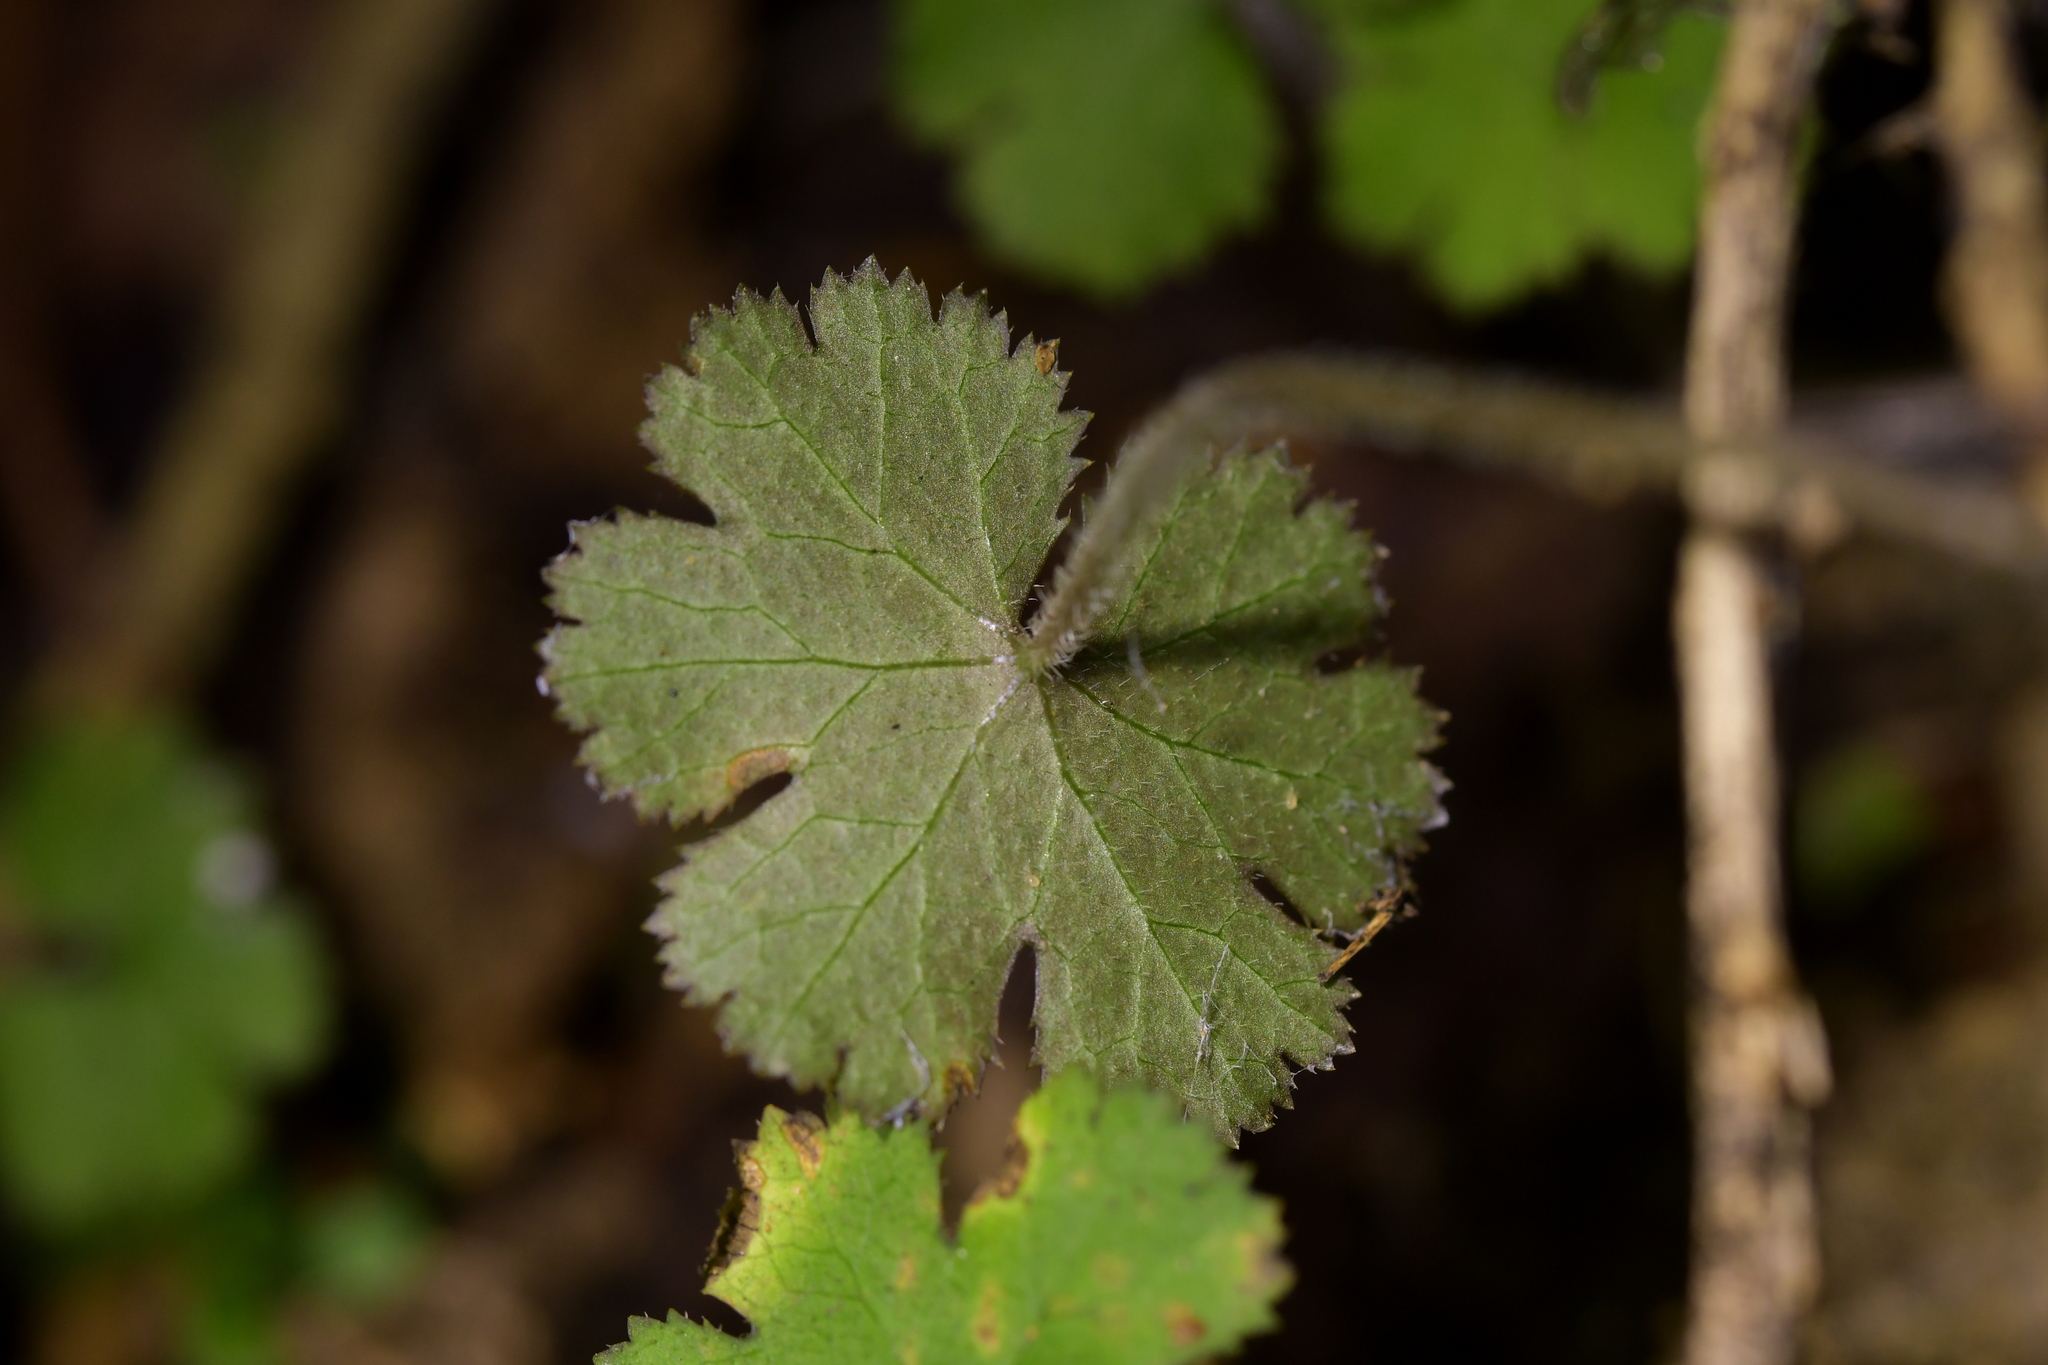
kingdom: Plantae
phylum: Tracheophyta
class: Magnoliopsida
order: Apiales
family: Araliaceae
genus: Hydrocotyle
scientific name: Hydrocotyle elongata
